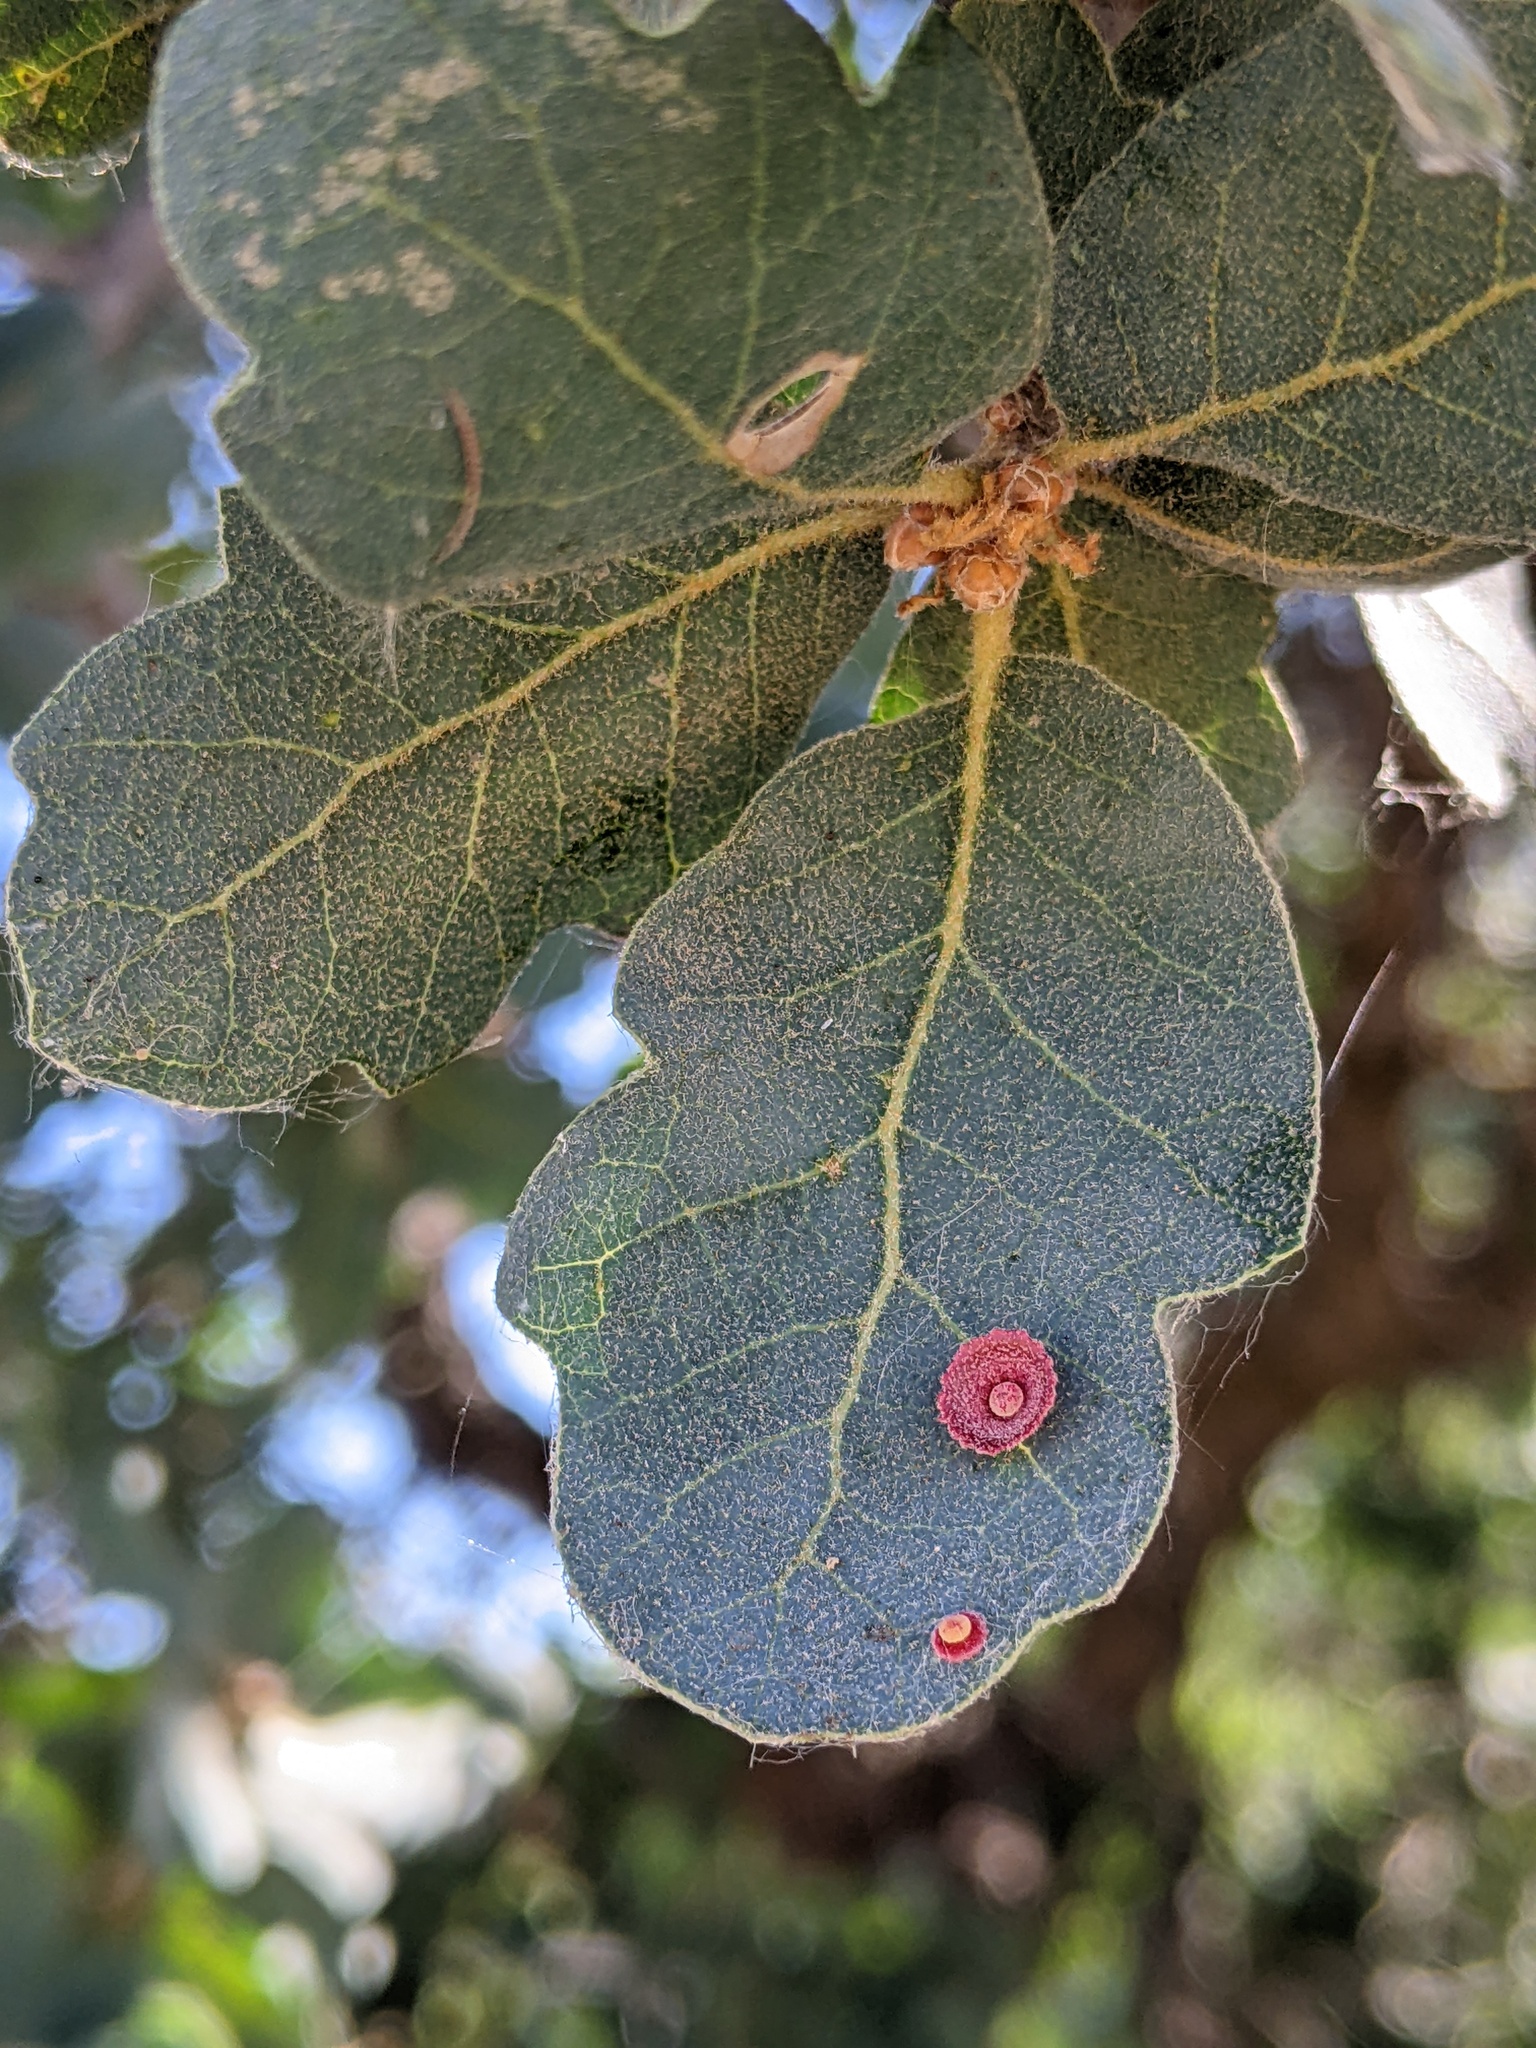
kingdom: Animalia
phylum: Arthropoda
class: Insecta
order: Hymenoptera
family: Cynipidae
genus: Andricus
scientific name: Andricus
